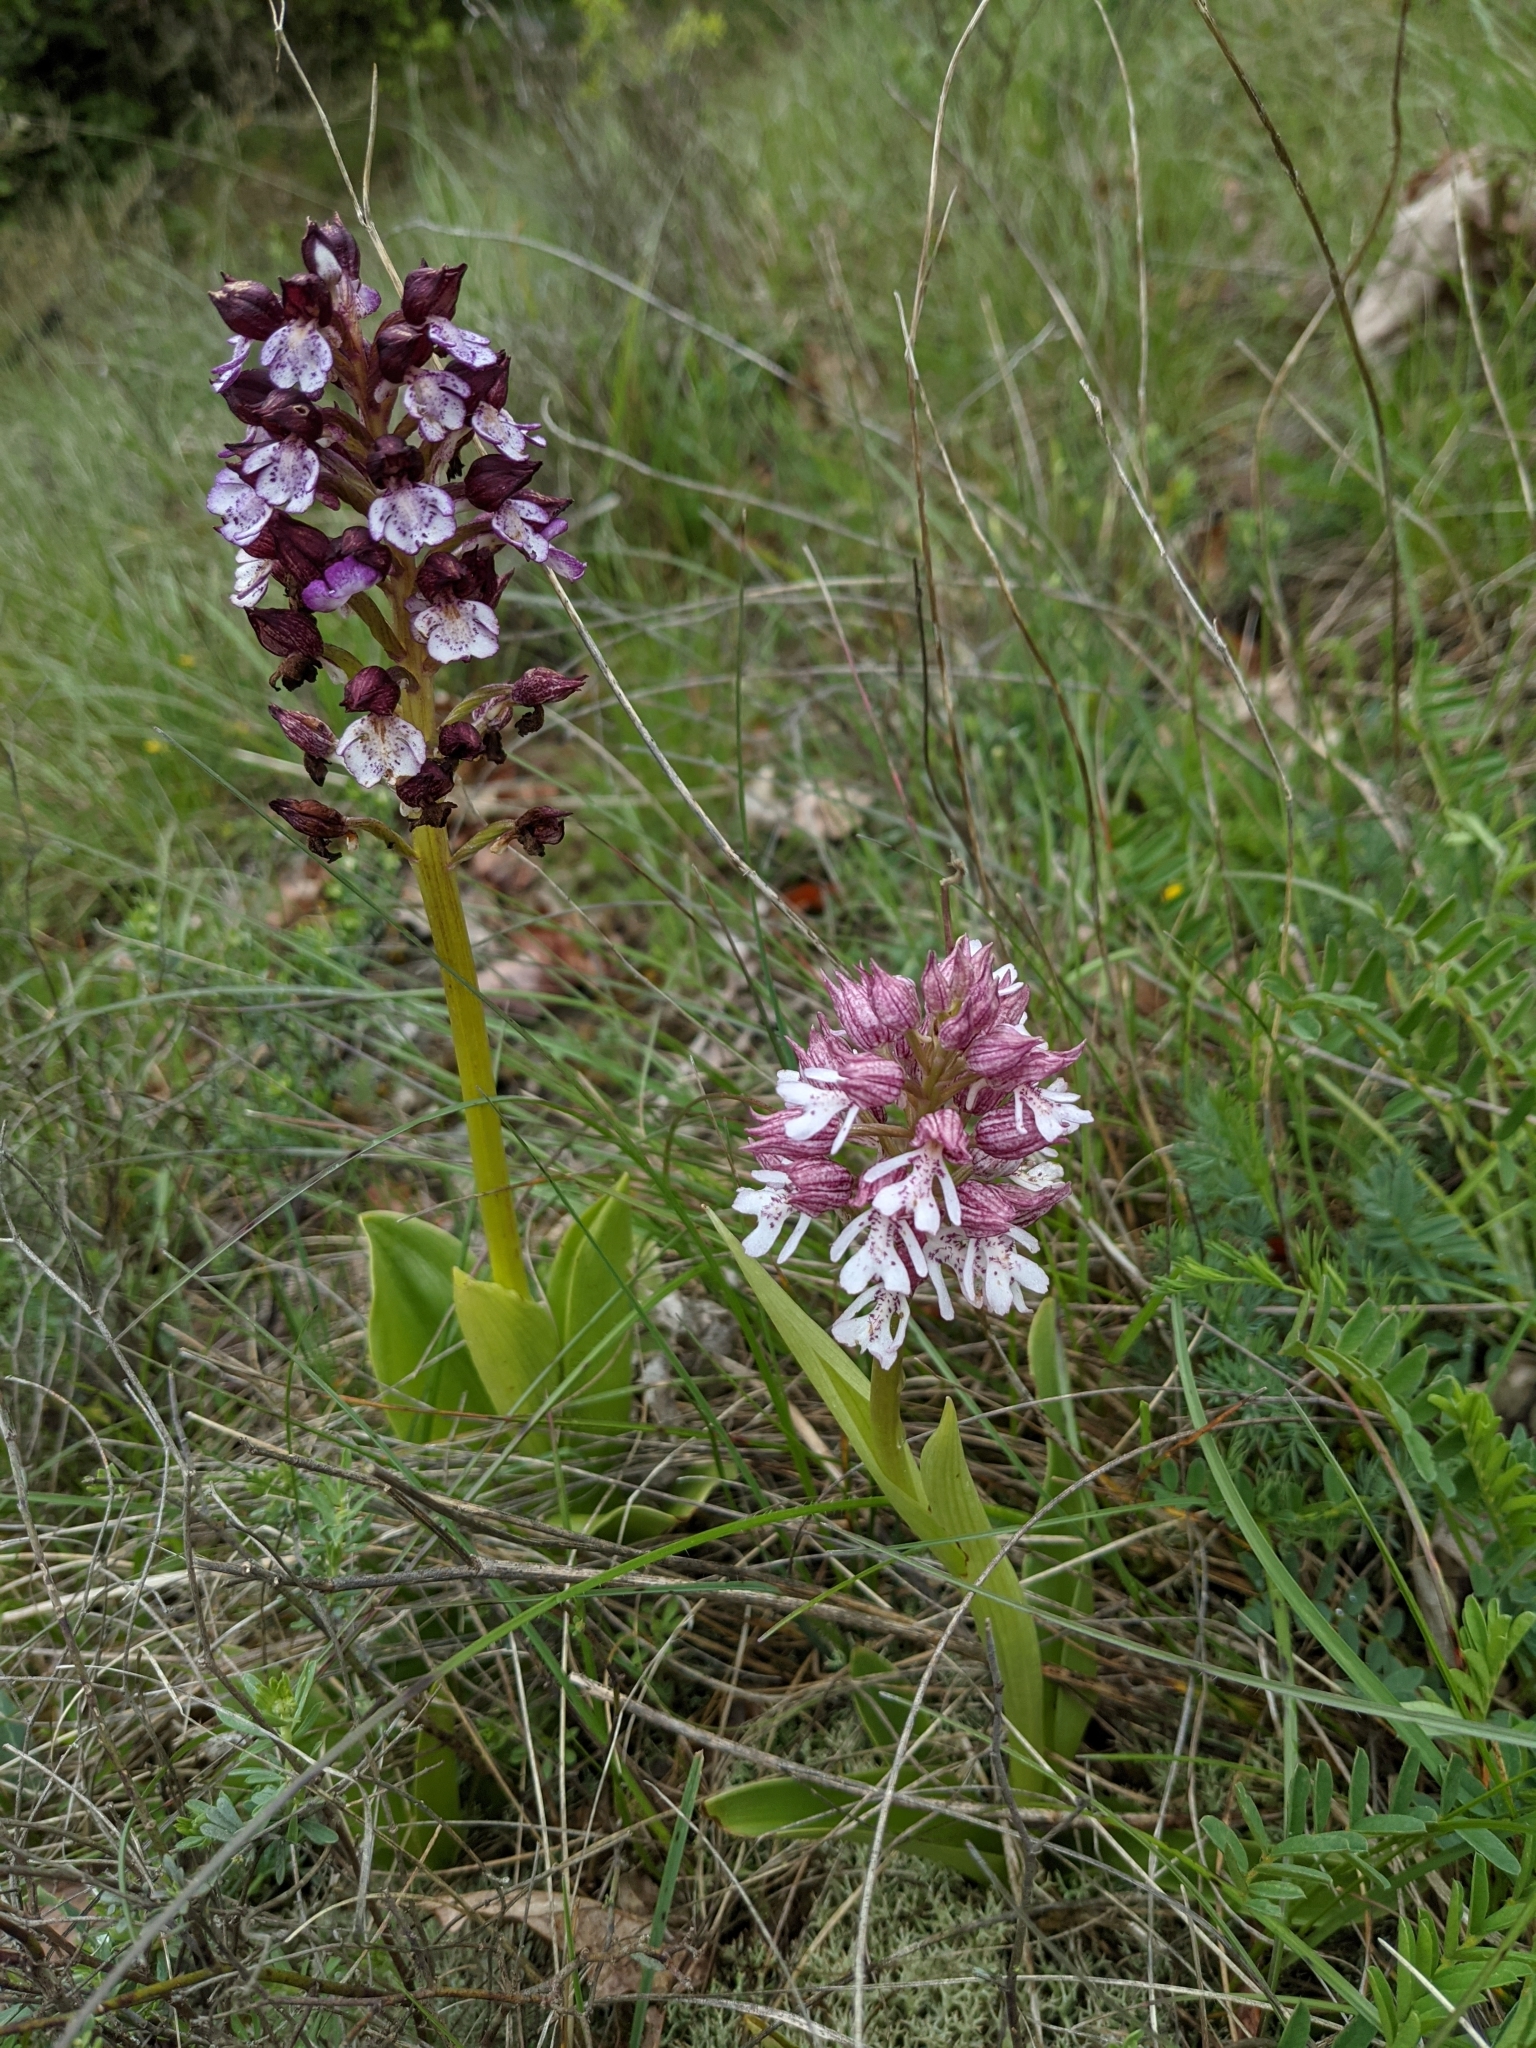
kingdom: Plantae
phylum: Tracheophyta
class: Liliopsida
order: Asparagales
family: Orchidaceae
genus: Orchis
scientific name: Orchis hybrida
